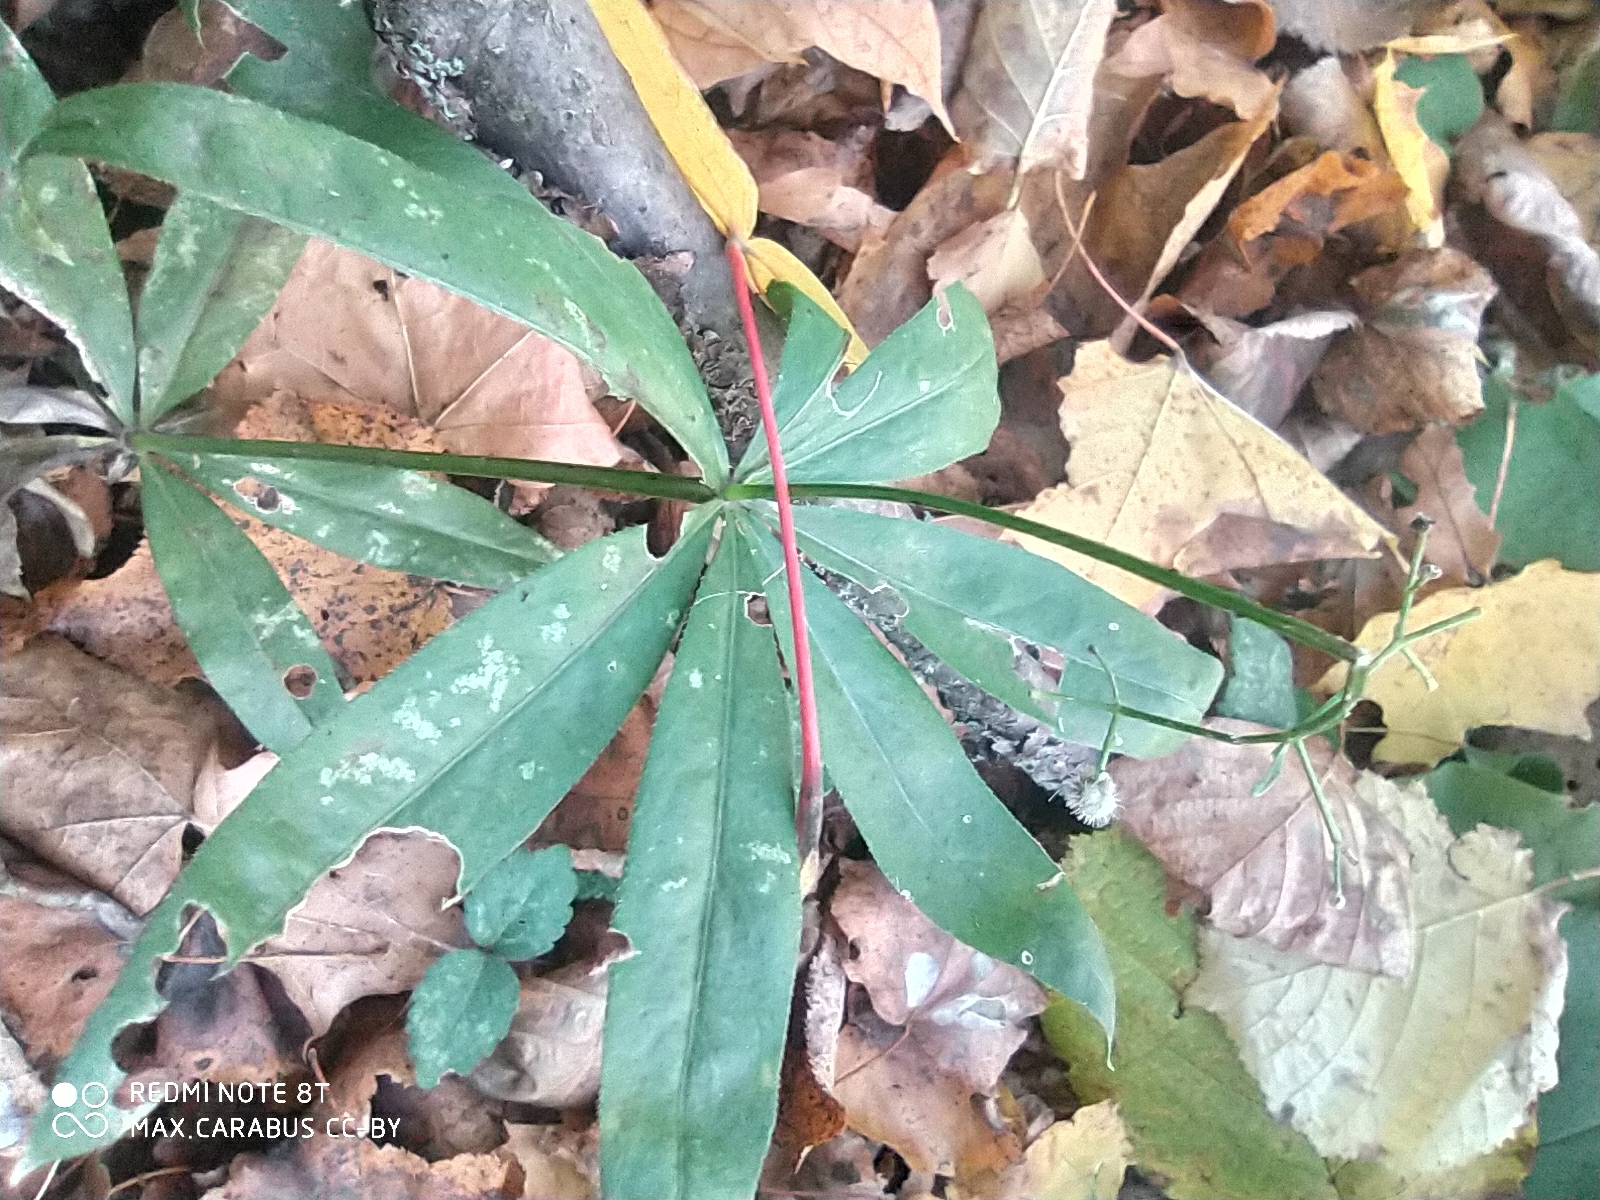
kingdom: Plantae
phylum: Tracheophyta
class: Magnoliopsida
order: Gentianales
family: Rubiaceae
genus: Galium
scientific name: Galium odoratum
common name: Sweet woodruff
